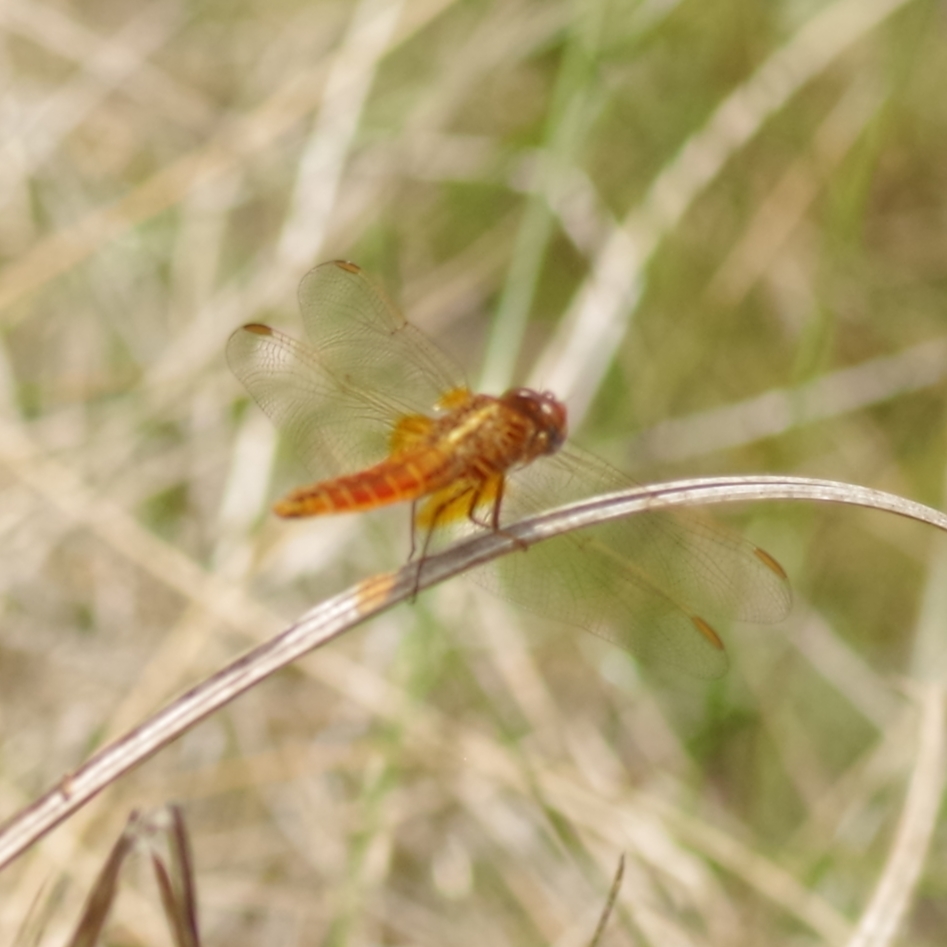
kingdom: Animalia
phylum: Arthropoda
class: Insecta
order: Odonata
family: Libellulidae
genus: Crocothemis
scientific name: Crocothemis erythraea
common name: Scarlet dragonfly
